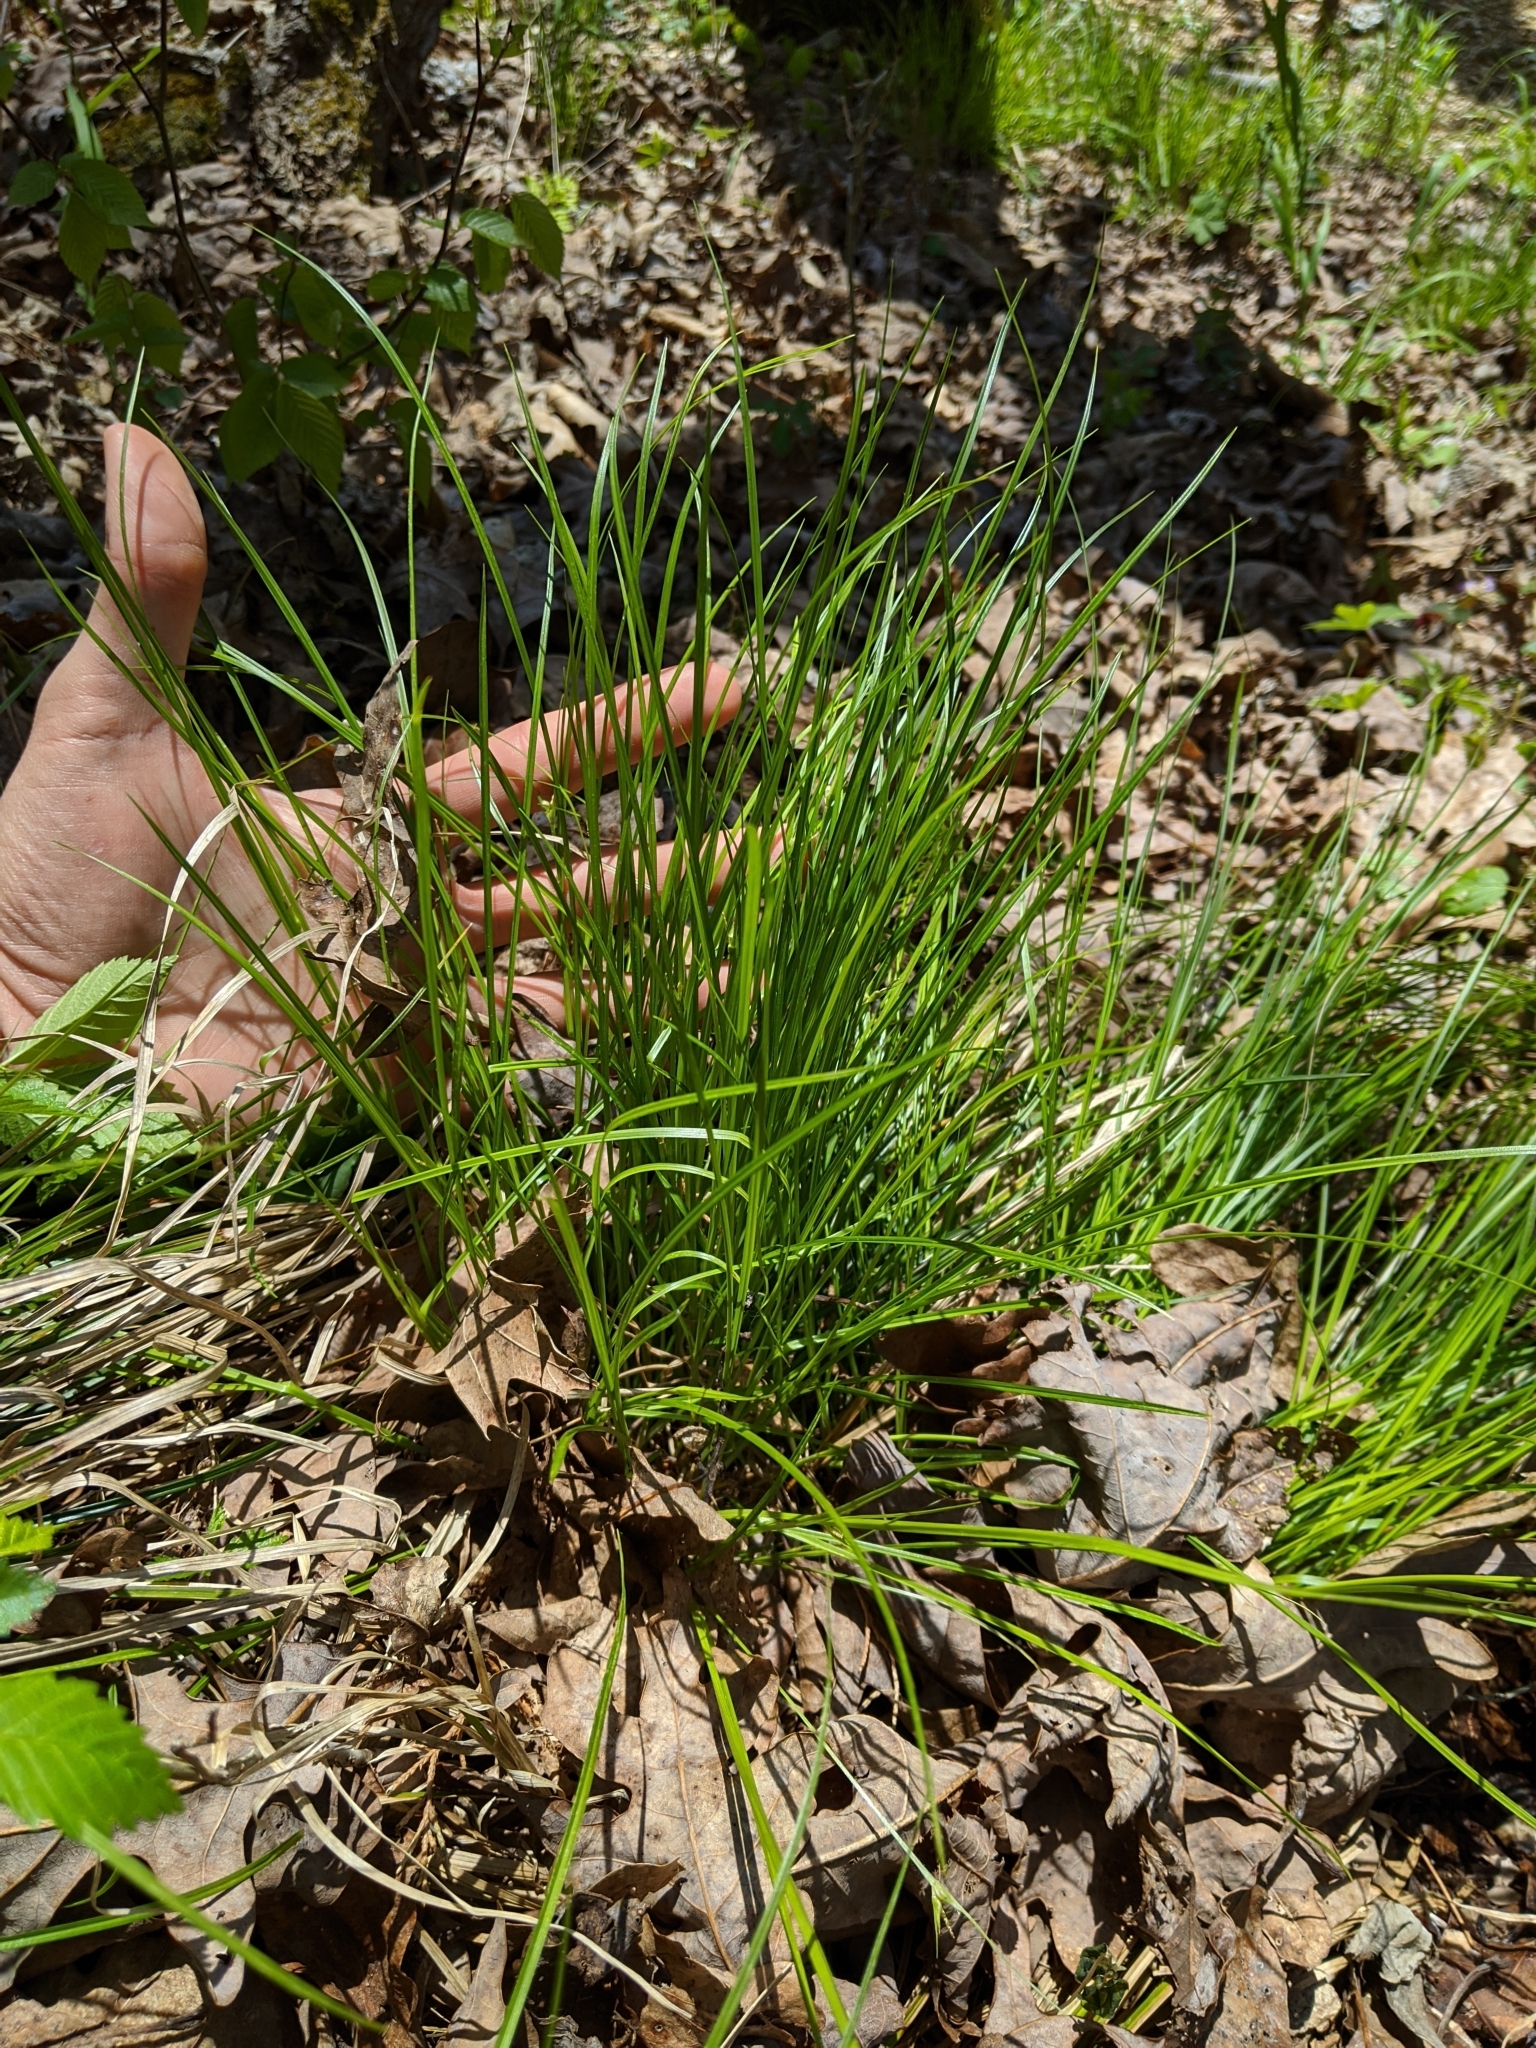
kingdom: Plantae
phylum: Tracheophyta
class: Liliopsida
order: Poales
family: Cyperaceae
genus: Carex
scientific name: Carex jamesii
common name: Grass sedge
